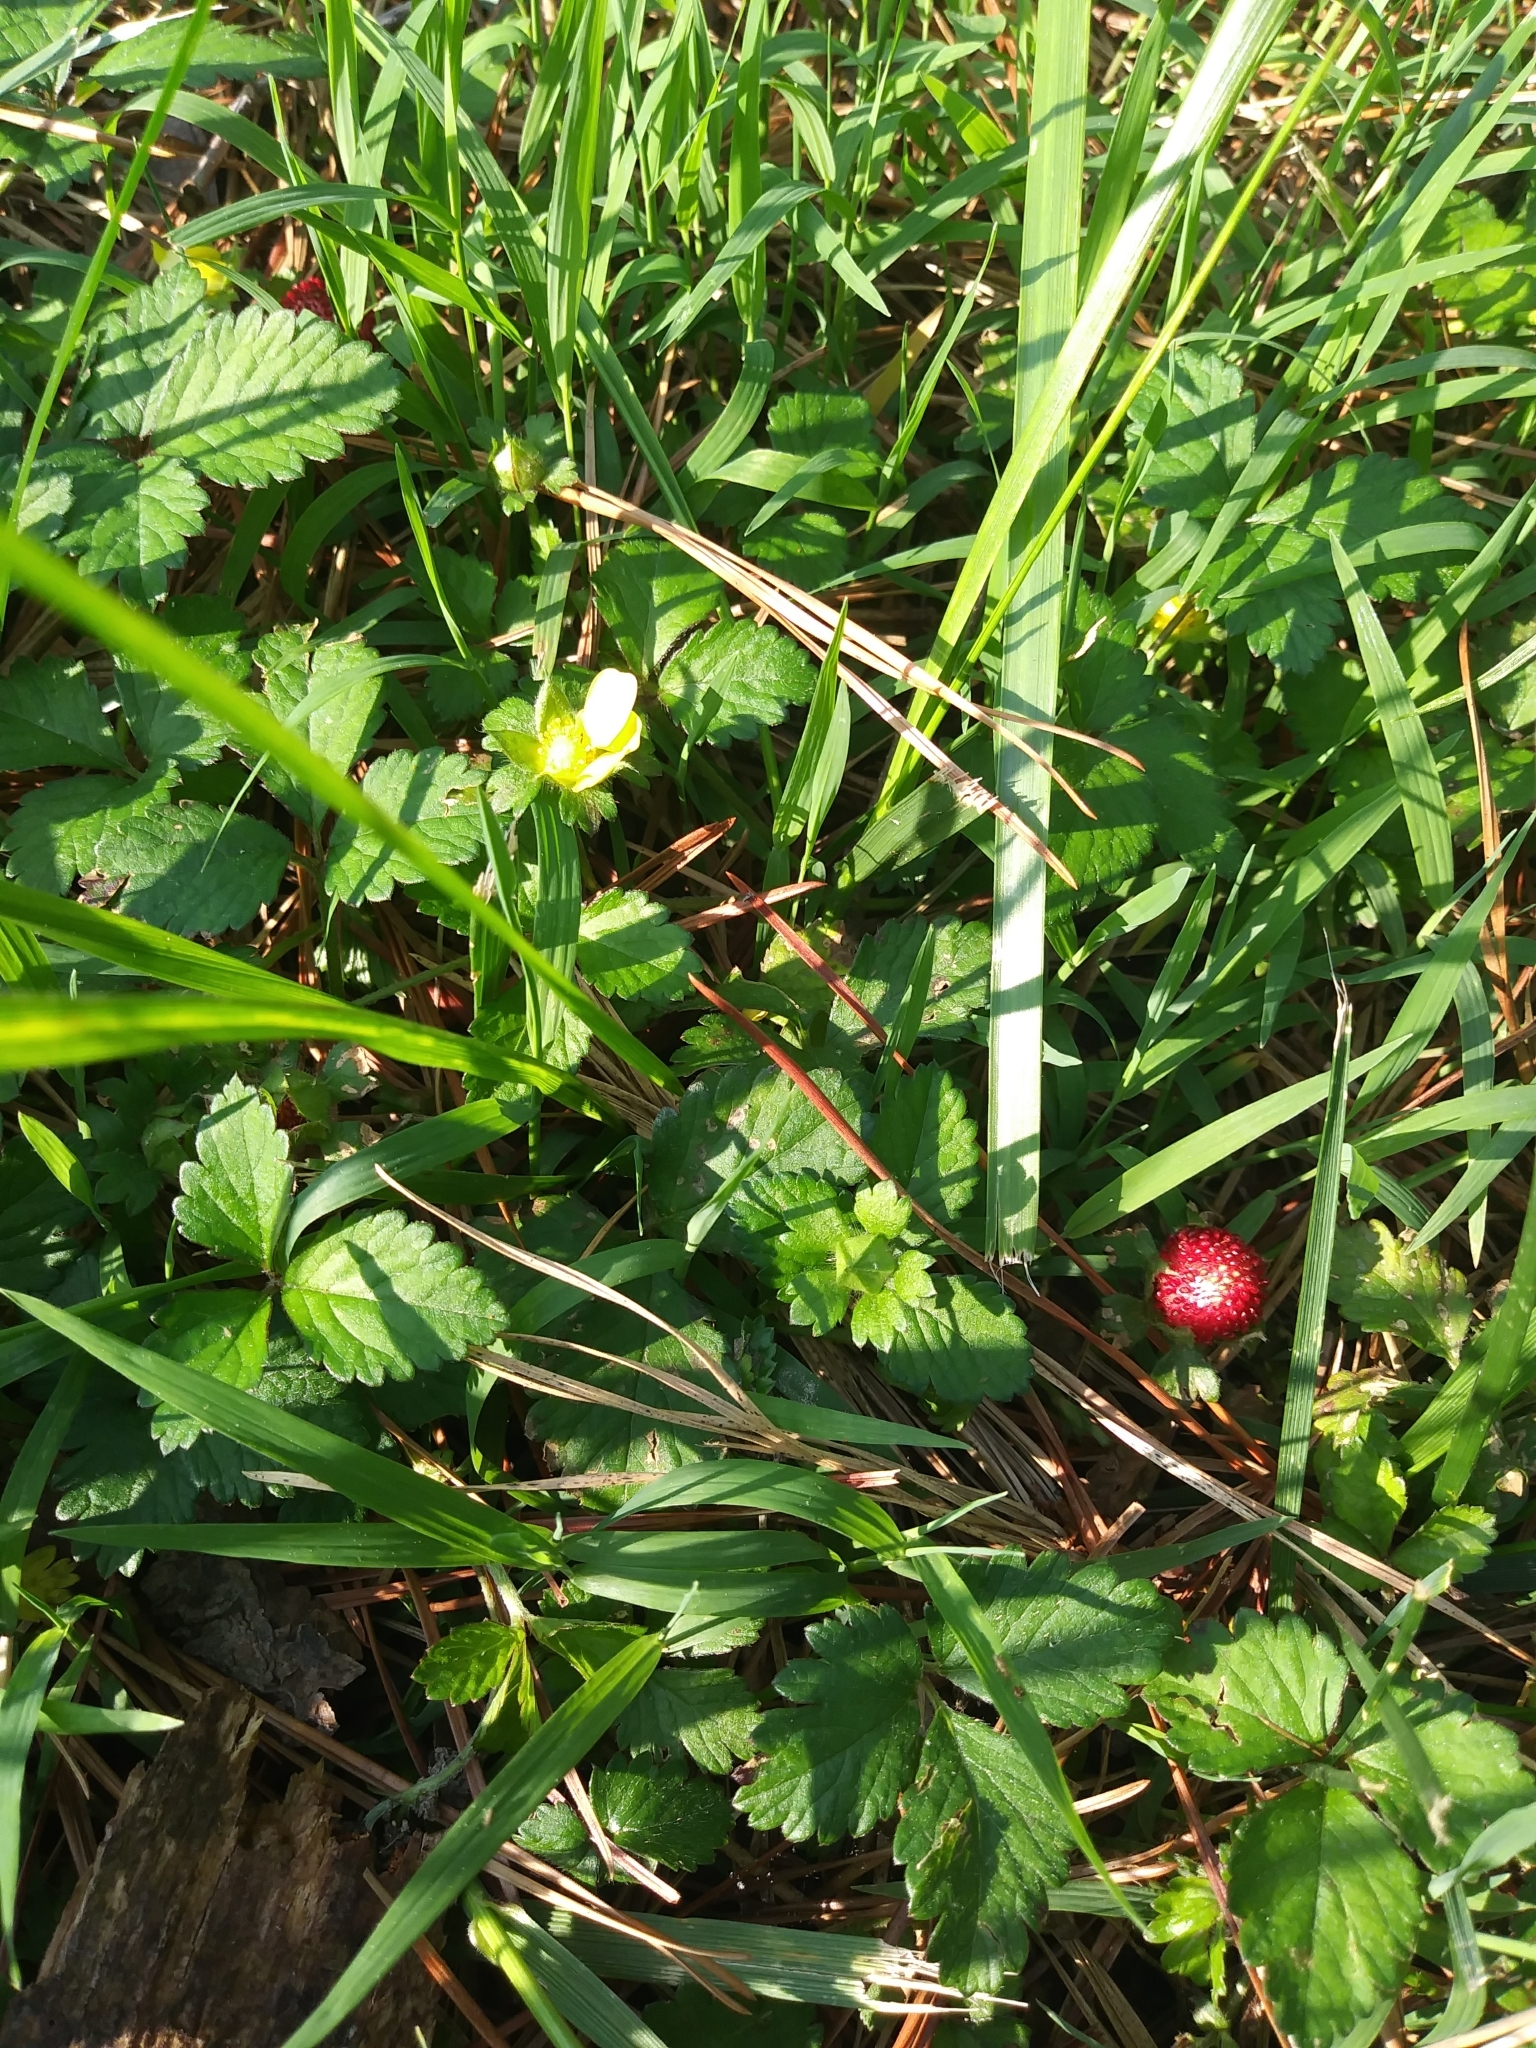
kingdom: Plantae
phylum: Tracheophyta
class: Magnoliopsida
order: Rosales
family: Rosaceae
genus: Potentilla
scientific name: Potentilla indica
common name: Yellow-flowered strawberry
